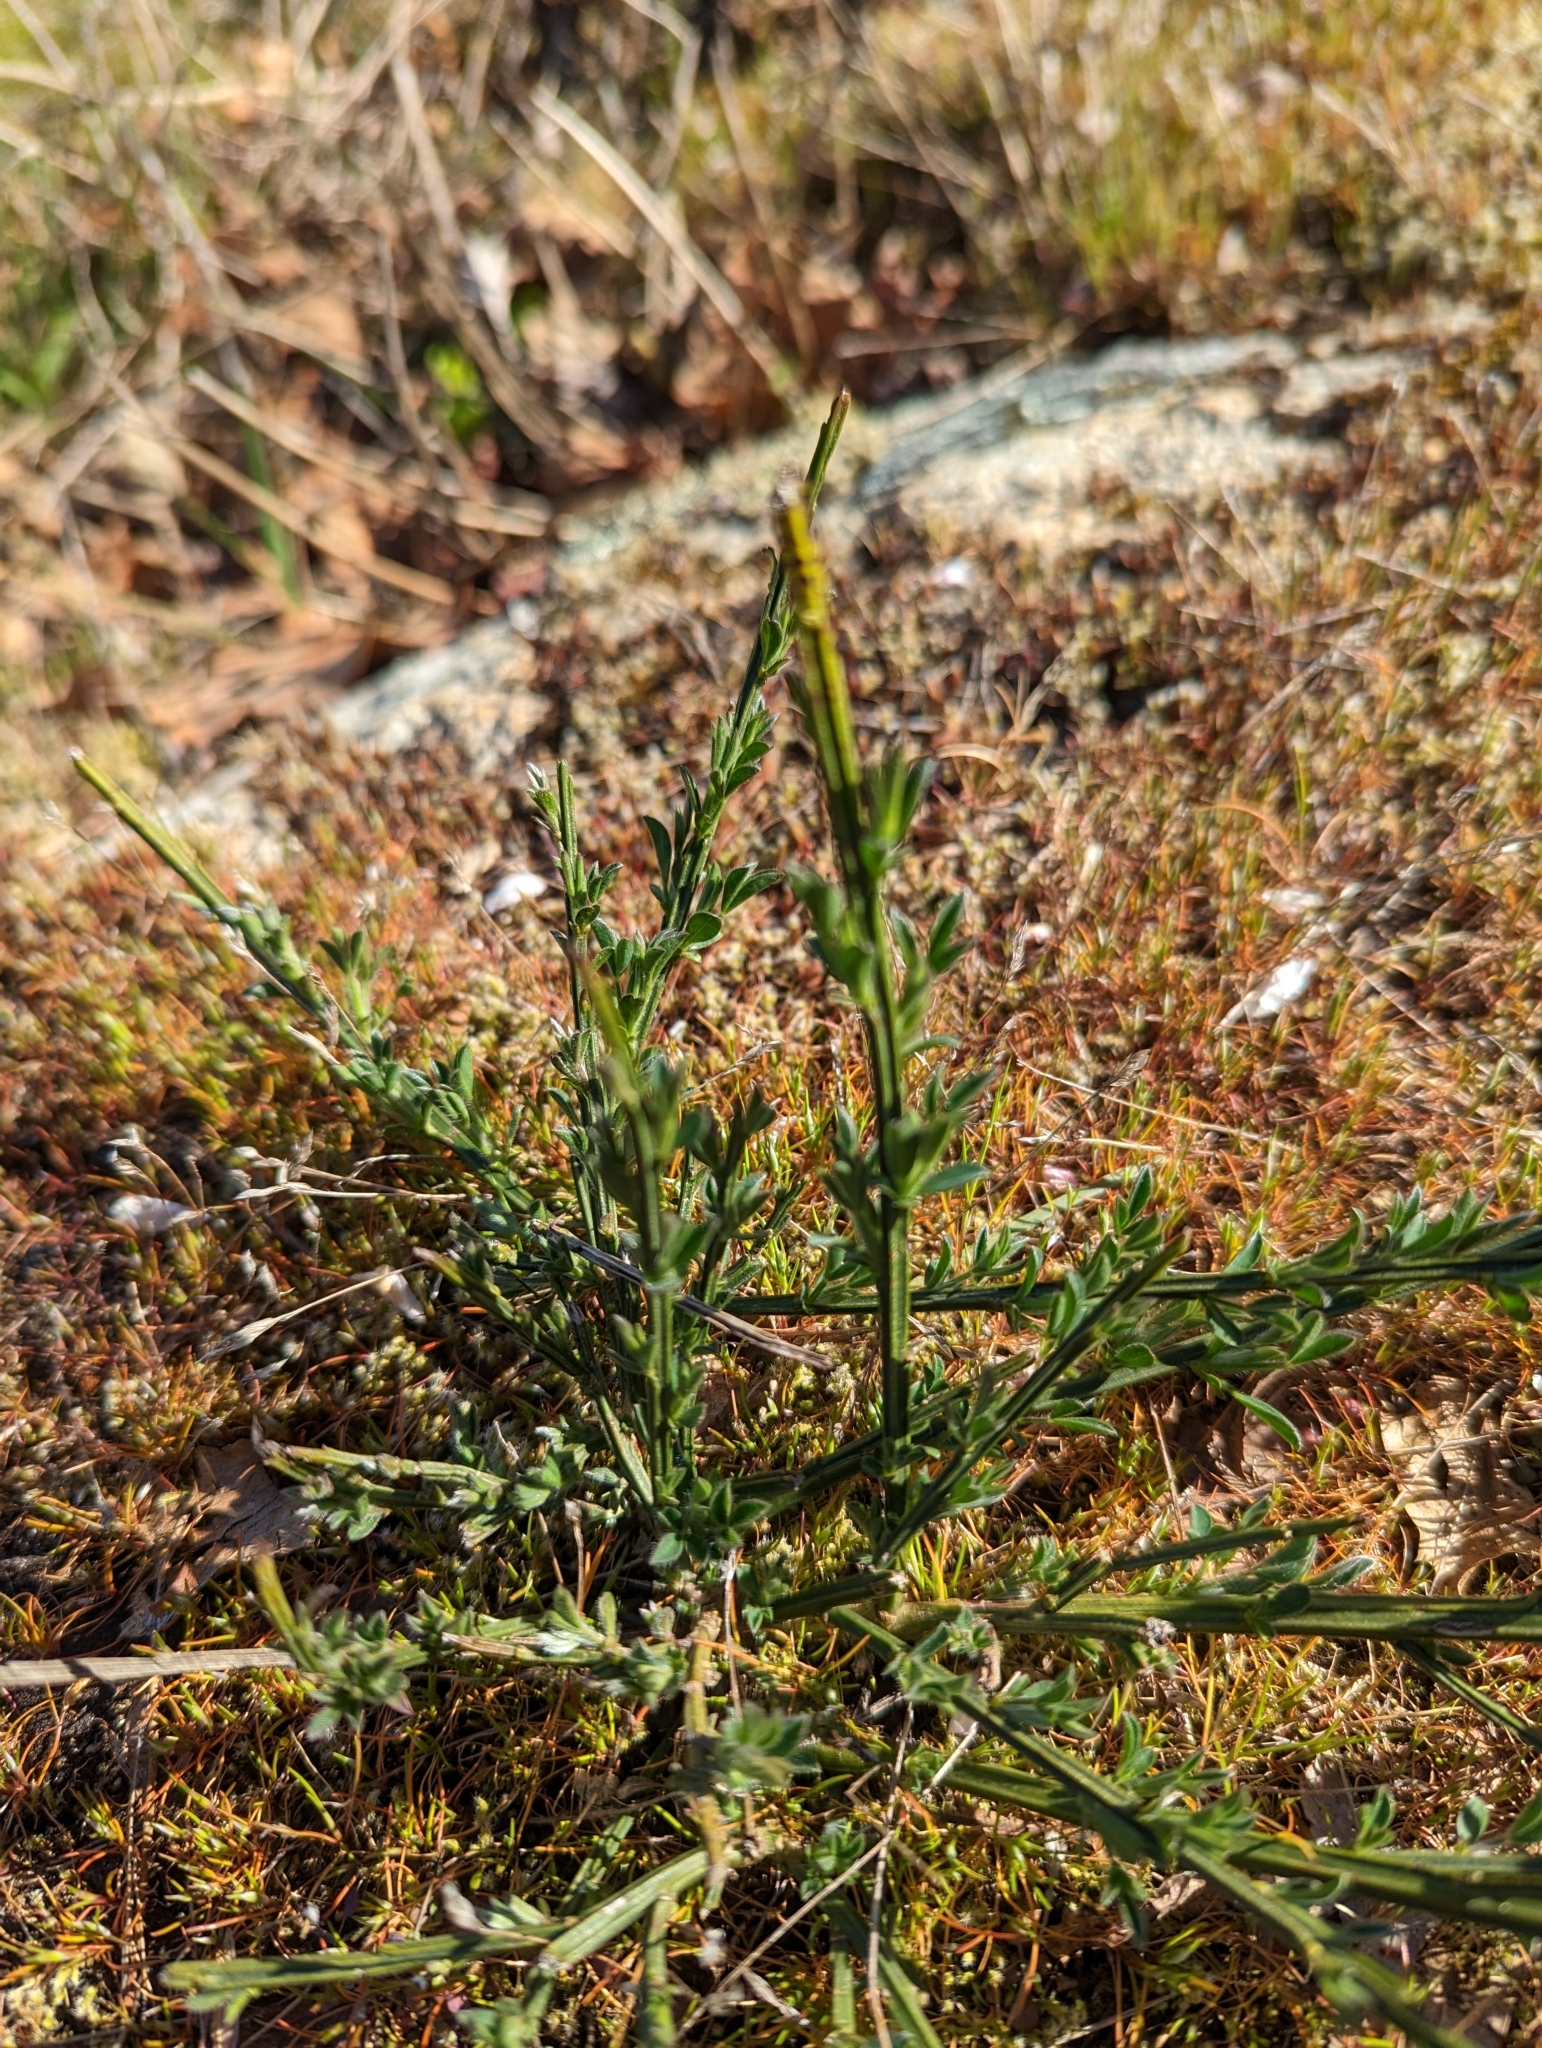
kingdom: Plantae
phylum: Tracheophyta
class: Magnoliopsida
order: Fabales
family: Fabaceae
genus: Cytisus
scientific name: Cytisus scoparius
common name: Scotch broom
